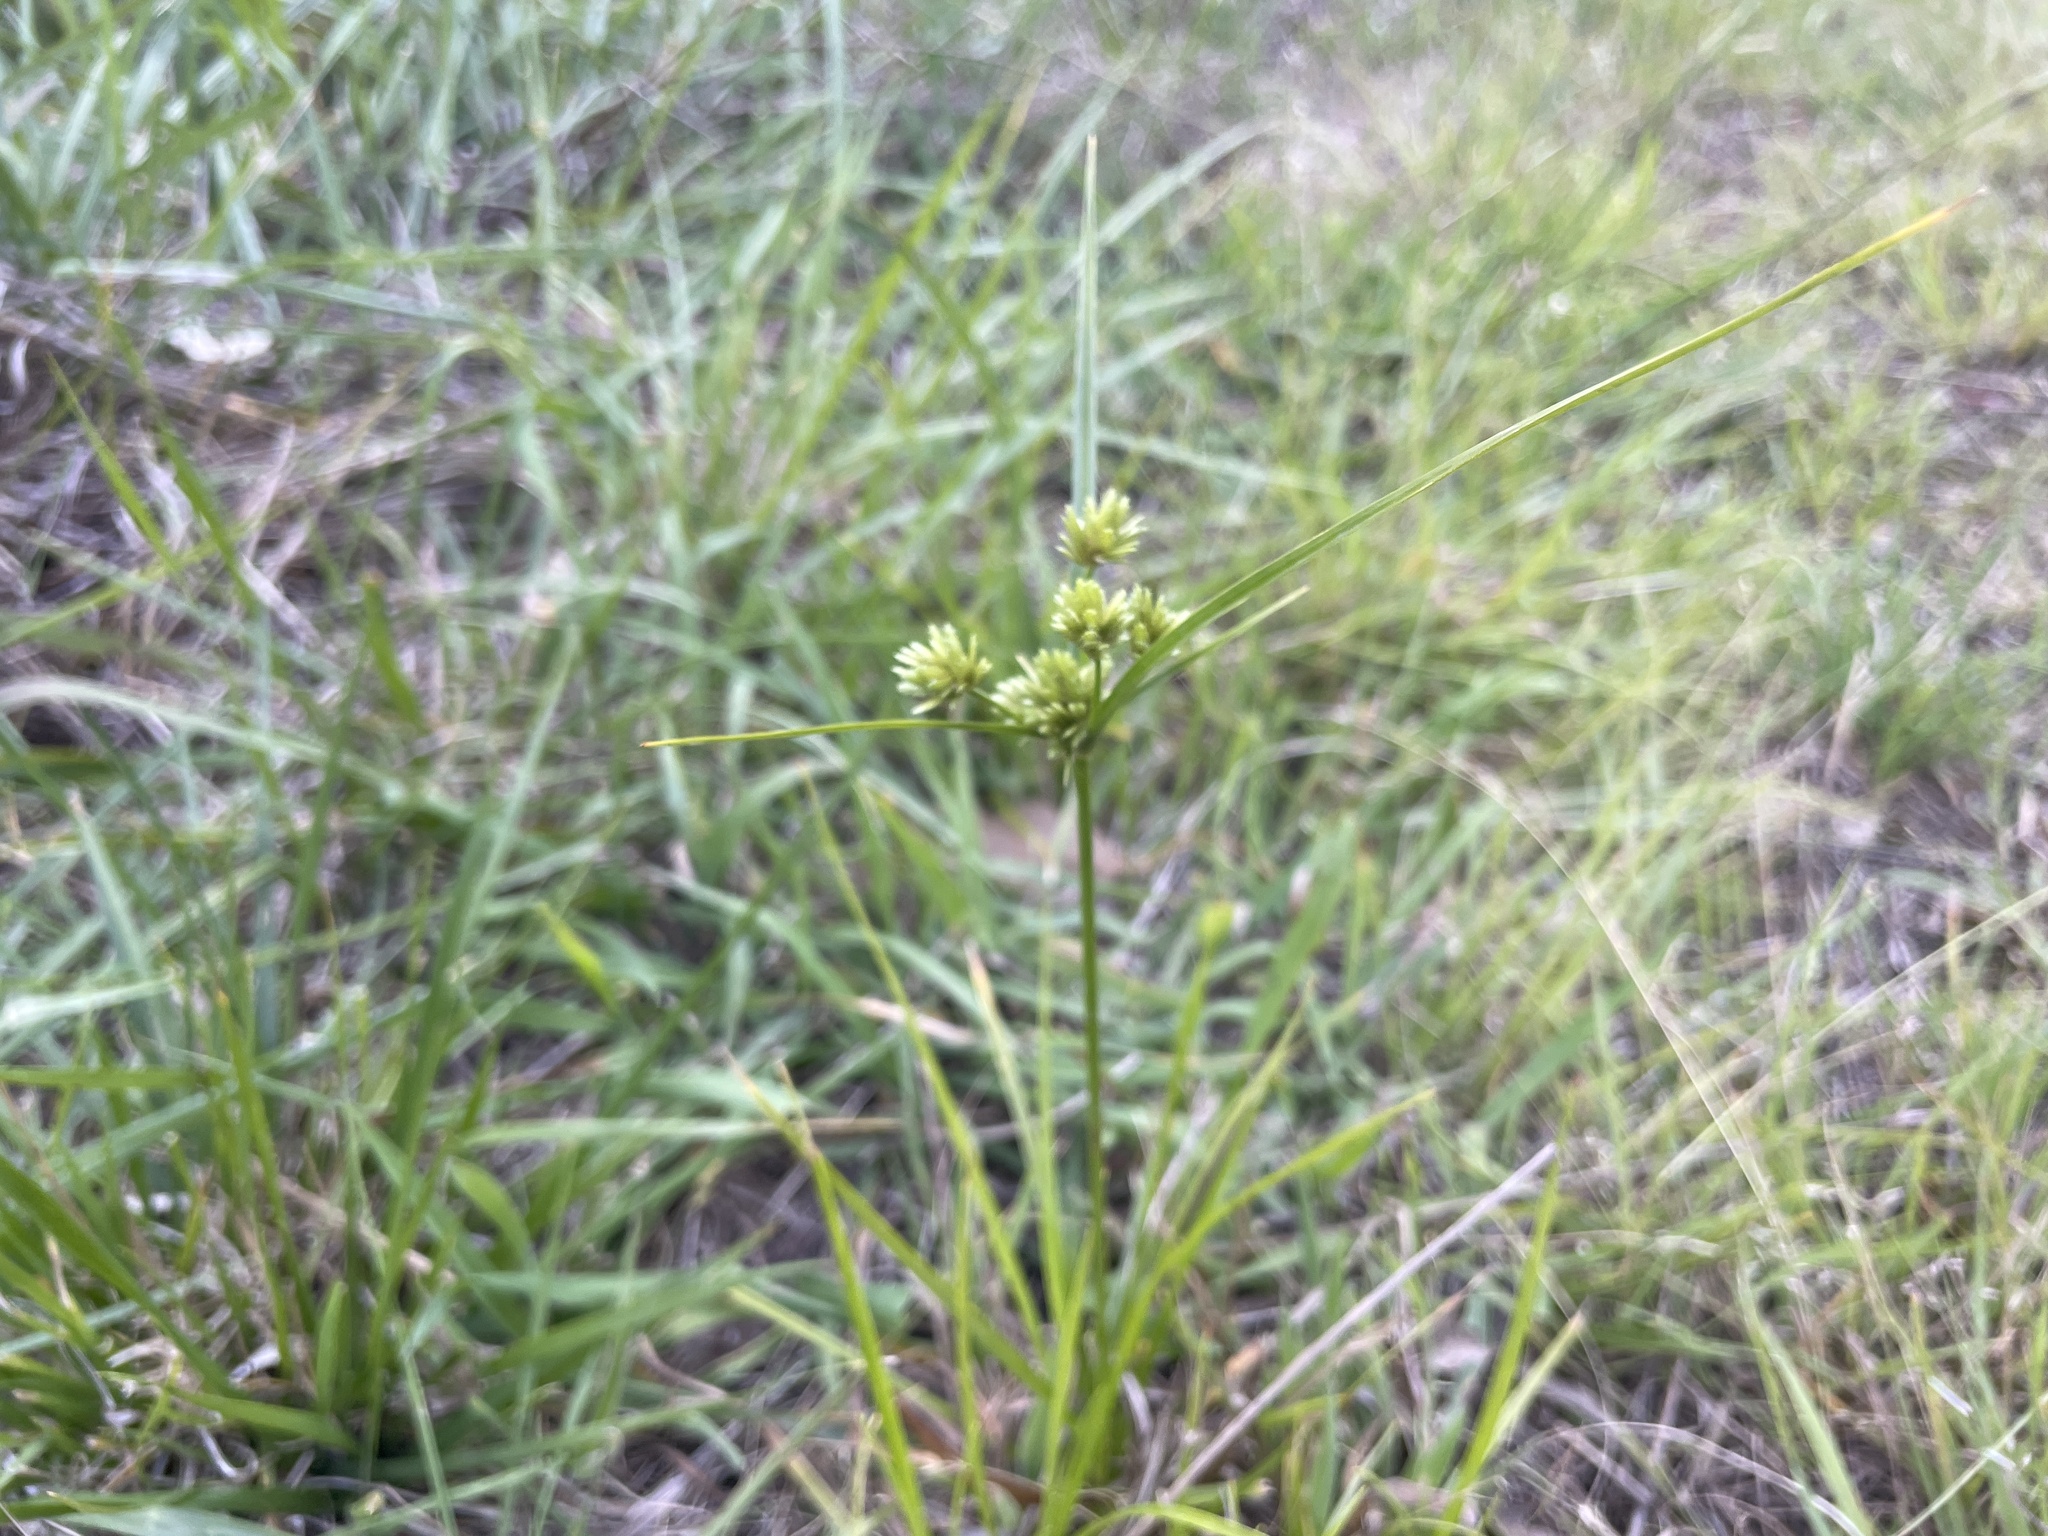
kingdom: Plantae
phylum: Tracheophyta
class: Liliopsida
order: Poales
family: Cyperaceae
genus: Cyperus
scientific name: Cyperus eragrostis
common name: Tall flatsedge
